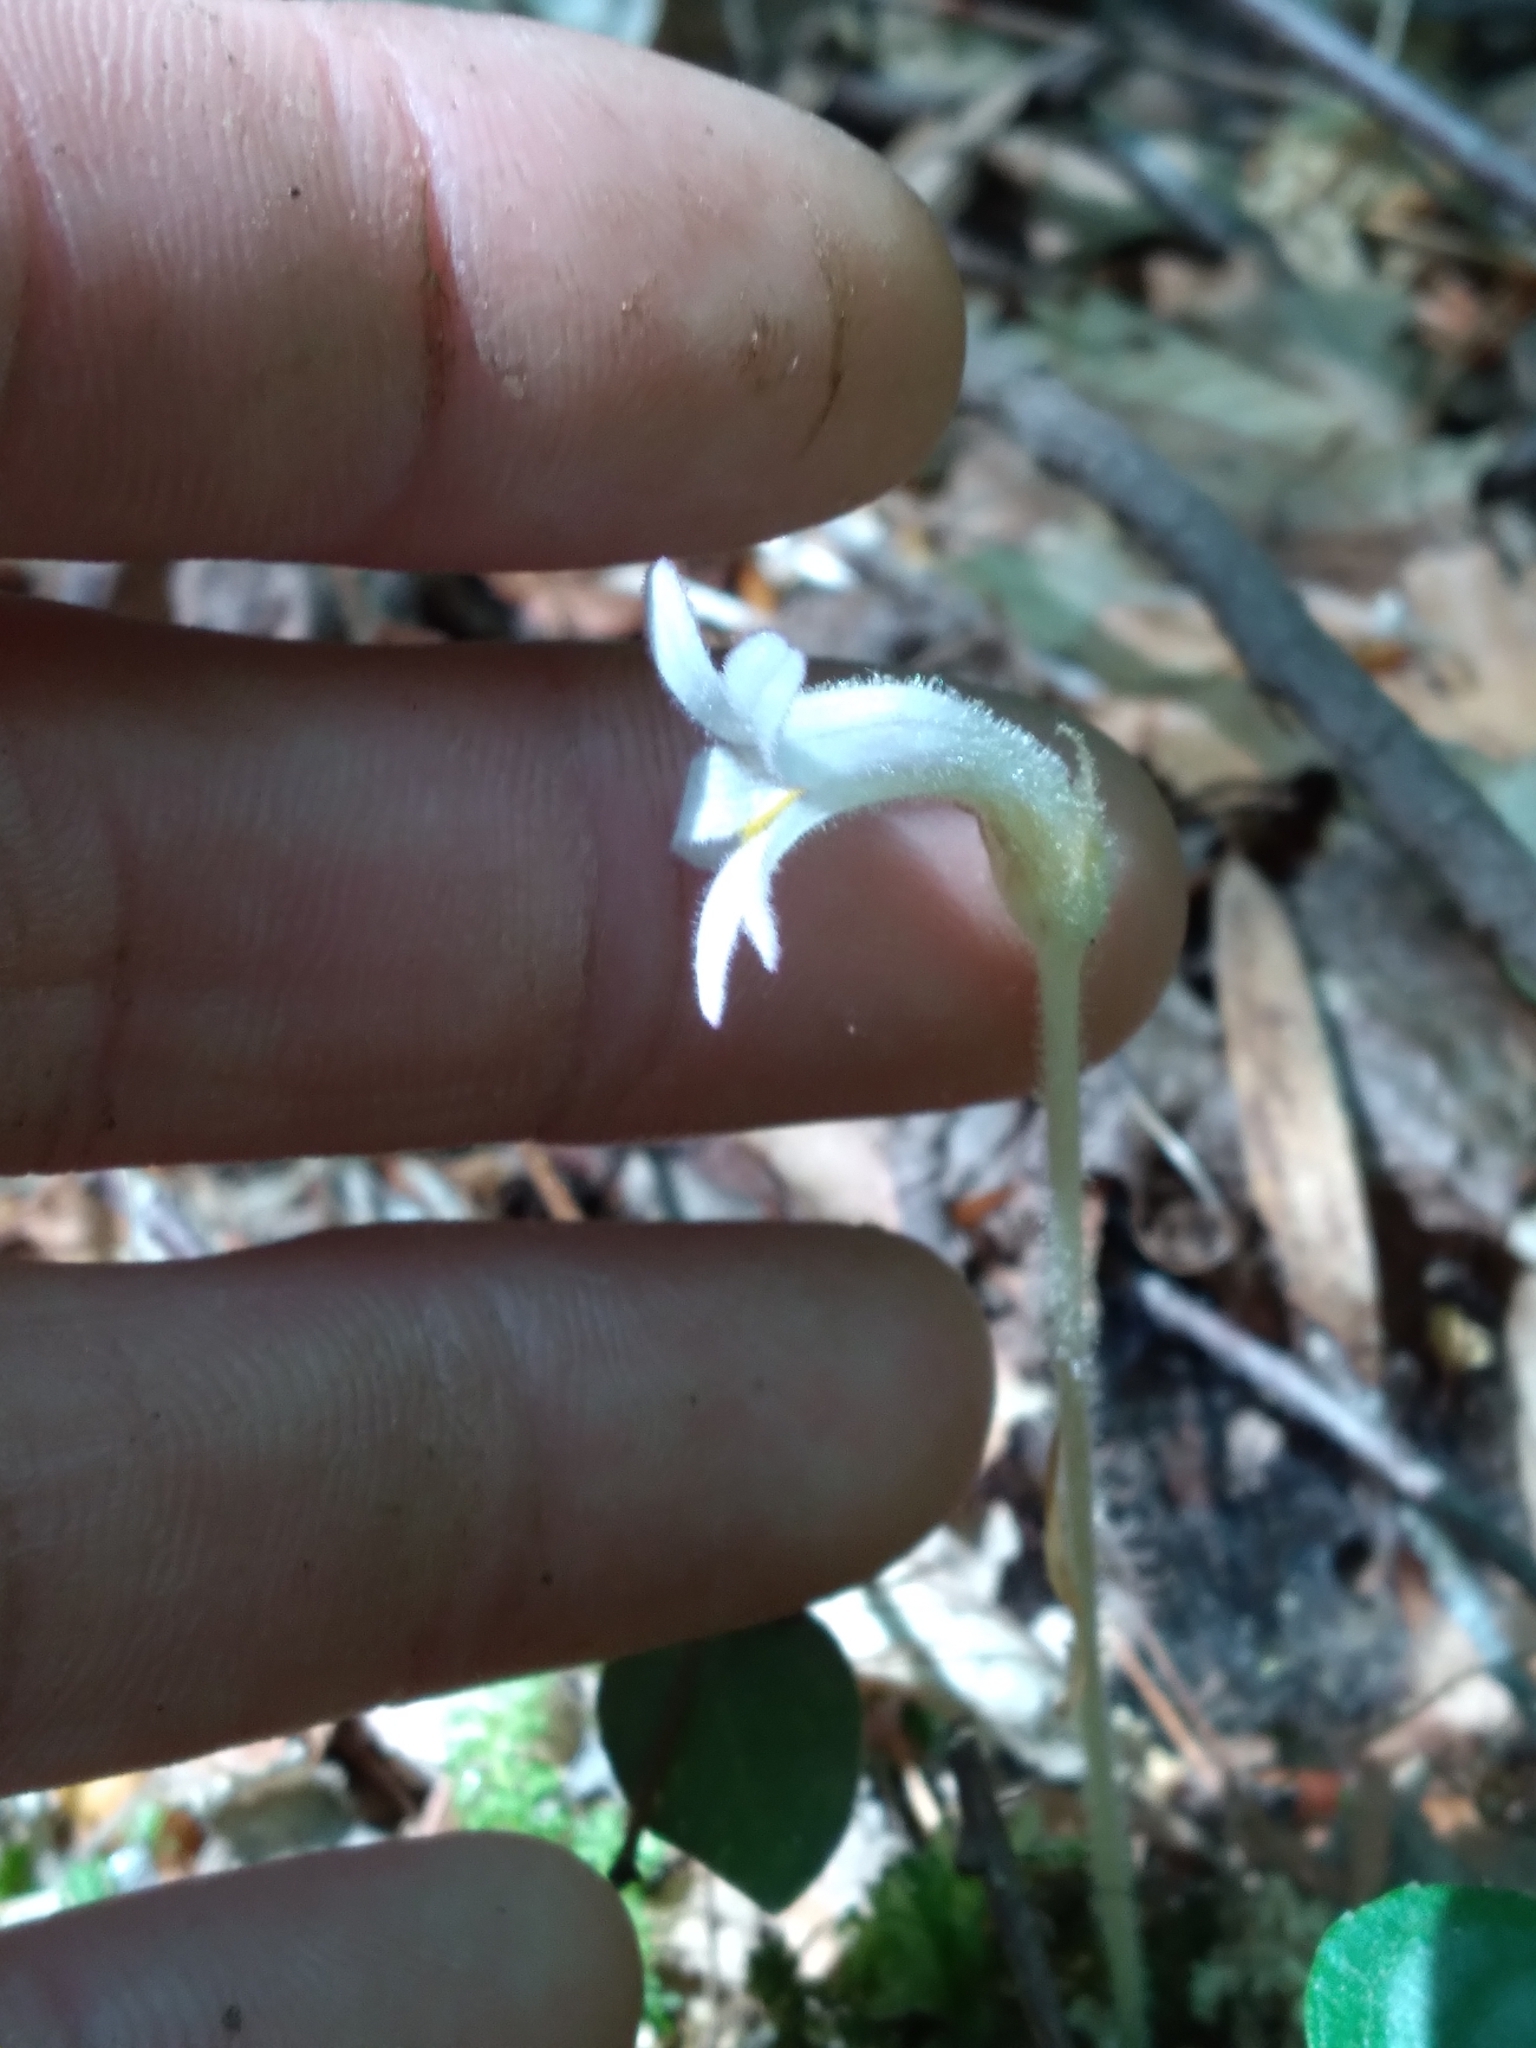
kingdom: Plantae
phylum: Tracheophyta
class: Magnoliopsida
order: Lamiales
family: Orobanchaceae
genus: Aphyllon
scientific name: Aphyllon uniflorum
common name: One-flowered broomrape
